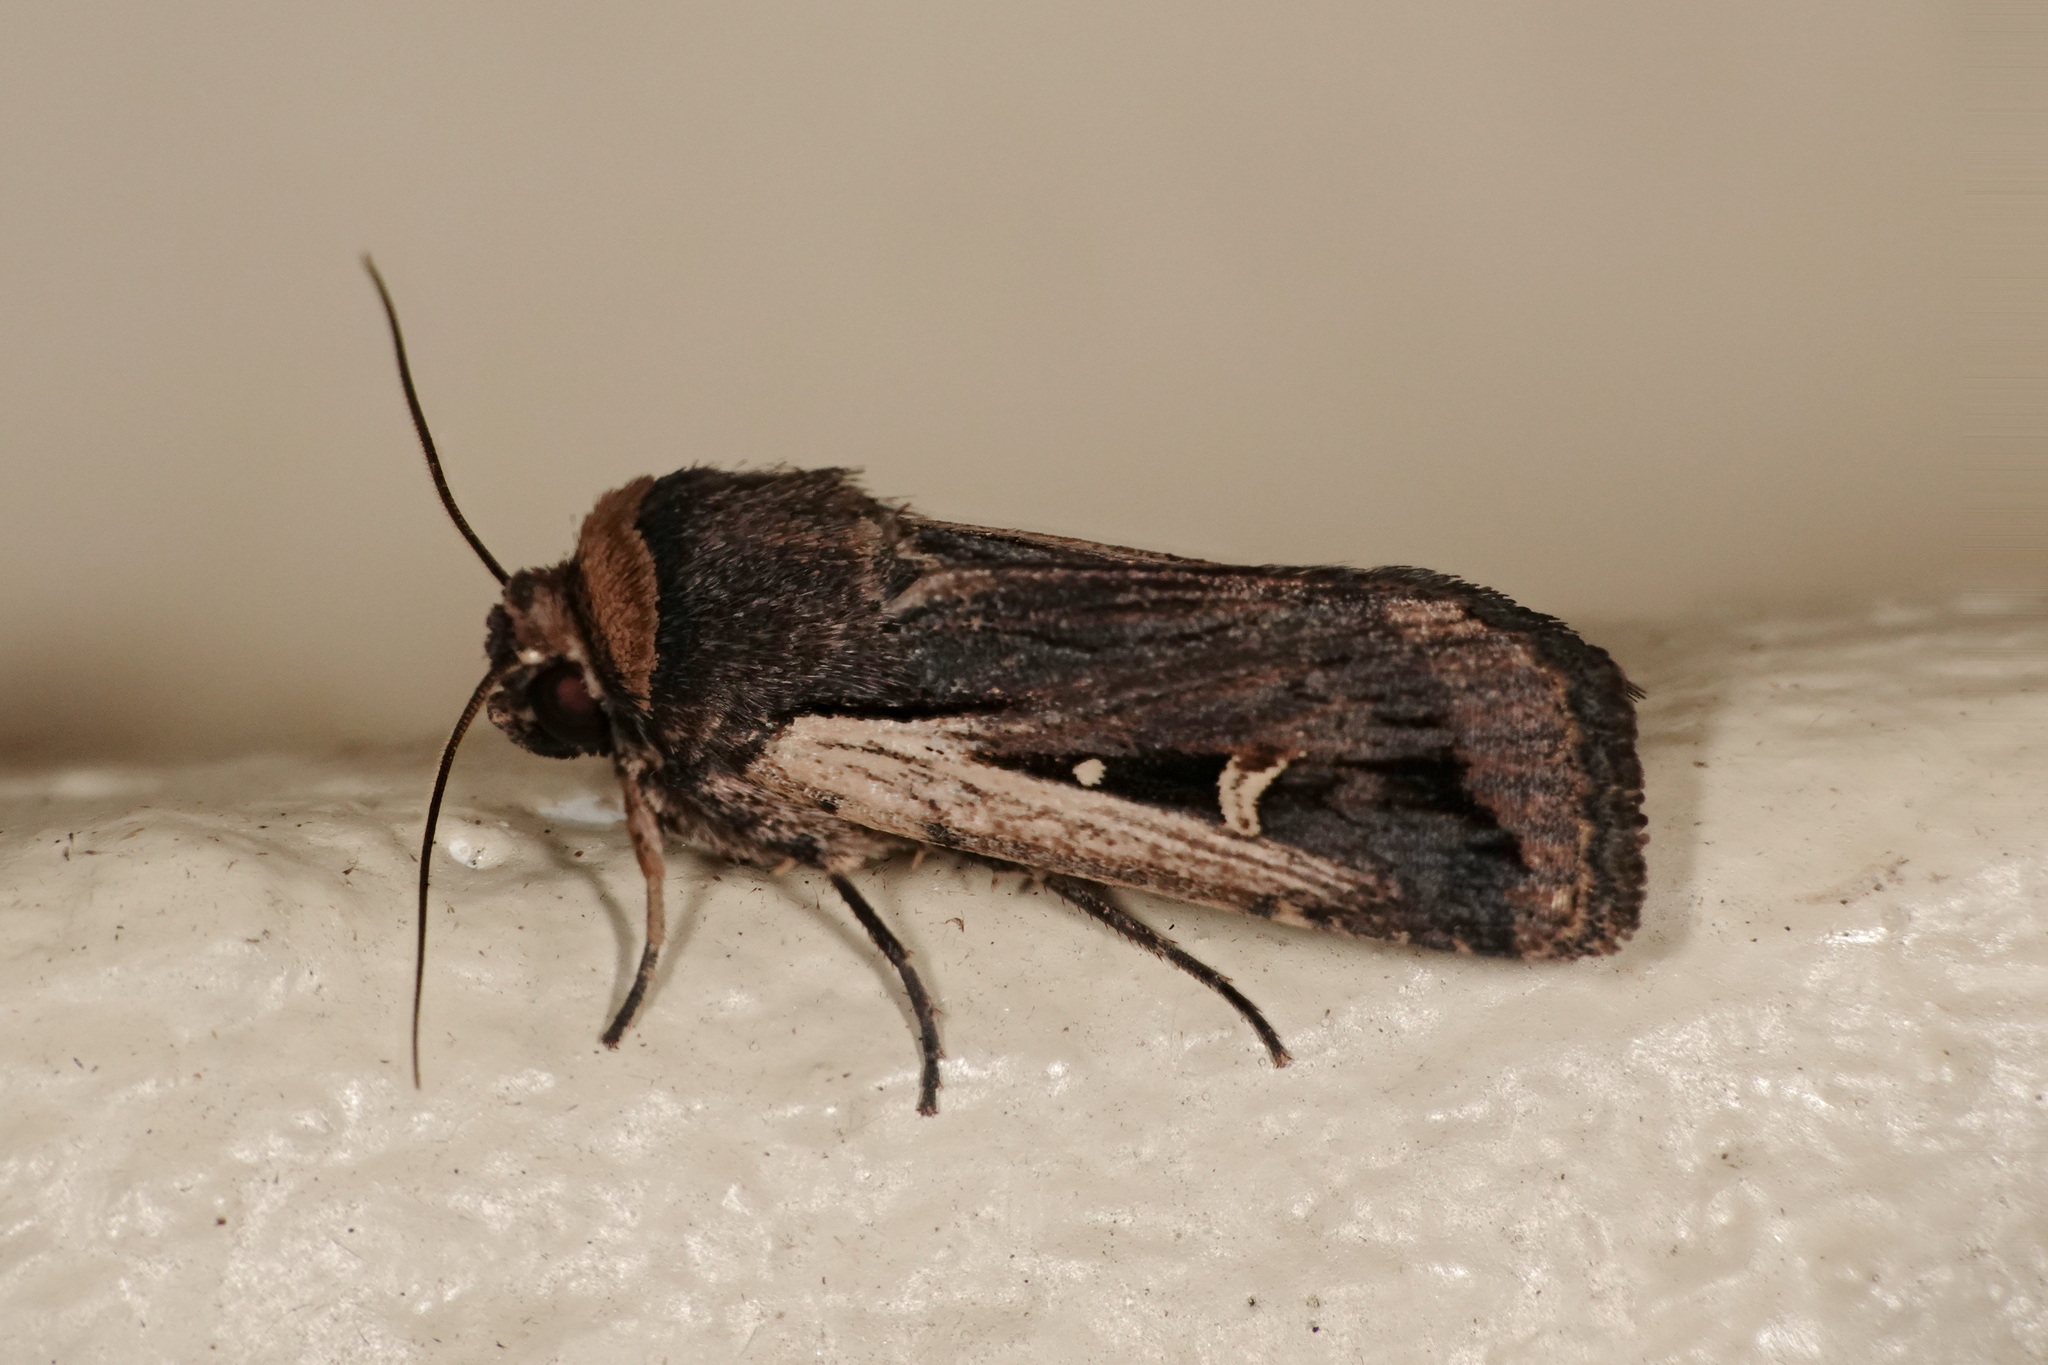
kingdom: Animalia
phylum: Arthropoda
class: Insecta
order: Lepidoptera
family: Noctuidae
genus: Proteuxoa
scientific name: Proteuxoa tortisigna
